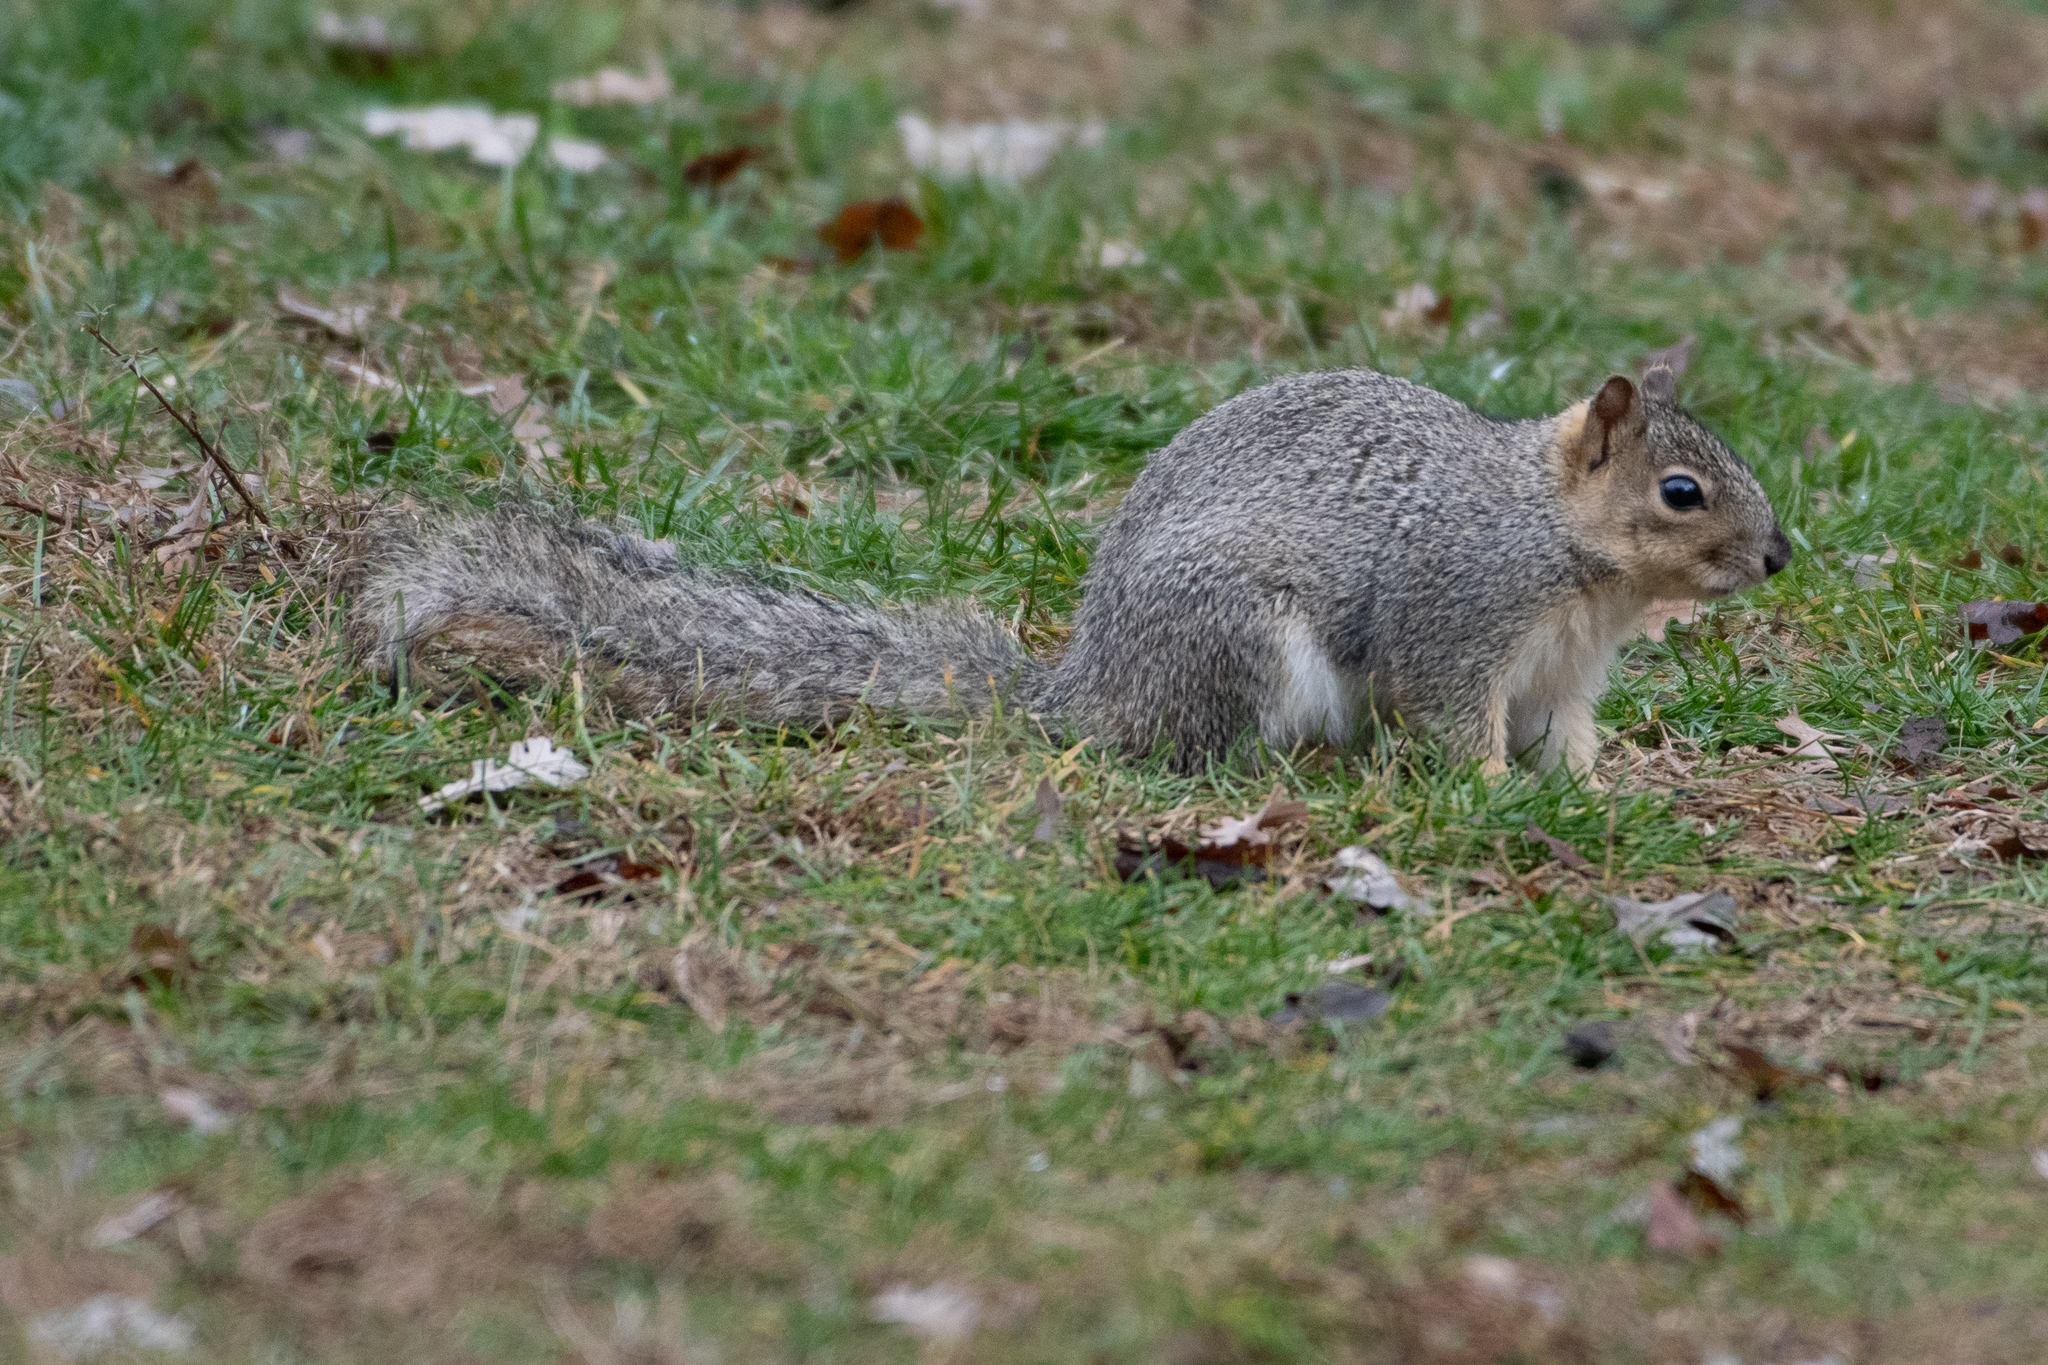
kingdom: Animalia
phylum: Chordata
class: Mammalia
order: Rodentia
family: Sciuridae
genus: Sciurus
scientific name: Sciurus niger
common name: Fox squirrel
